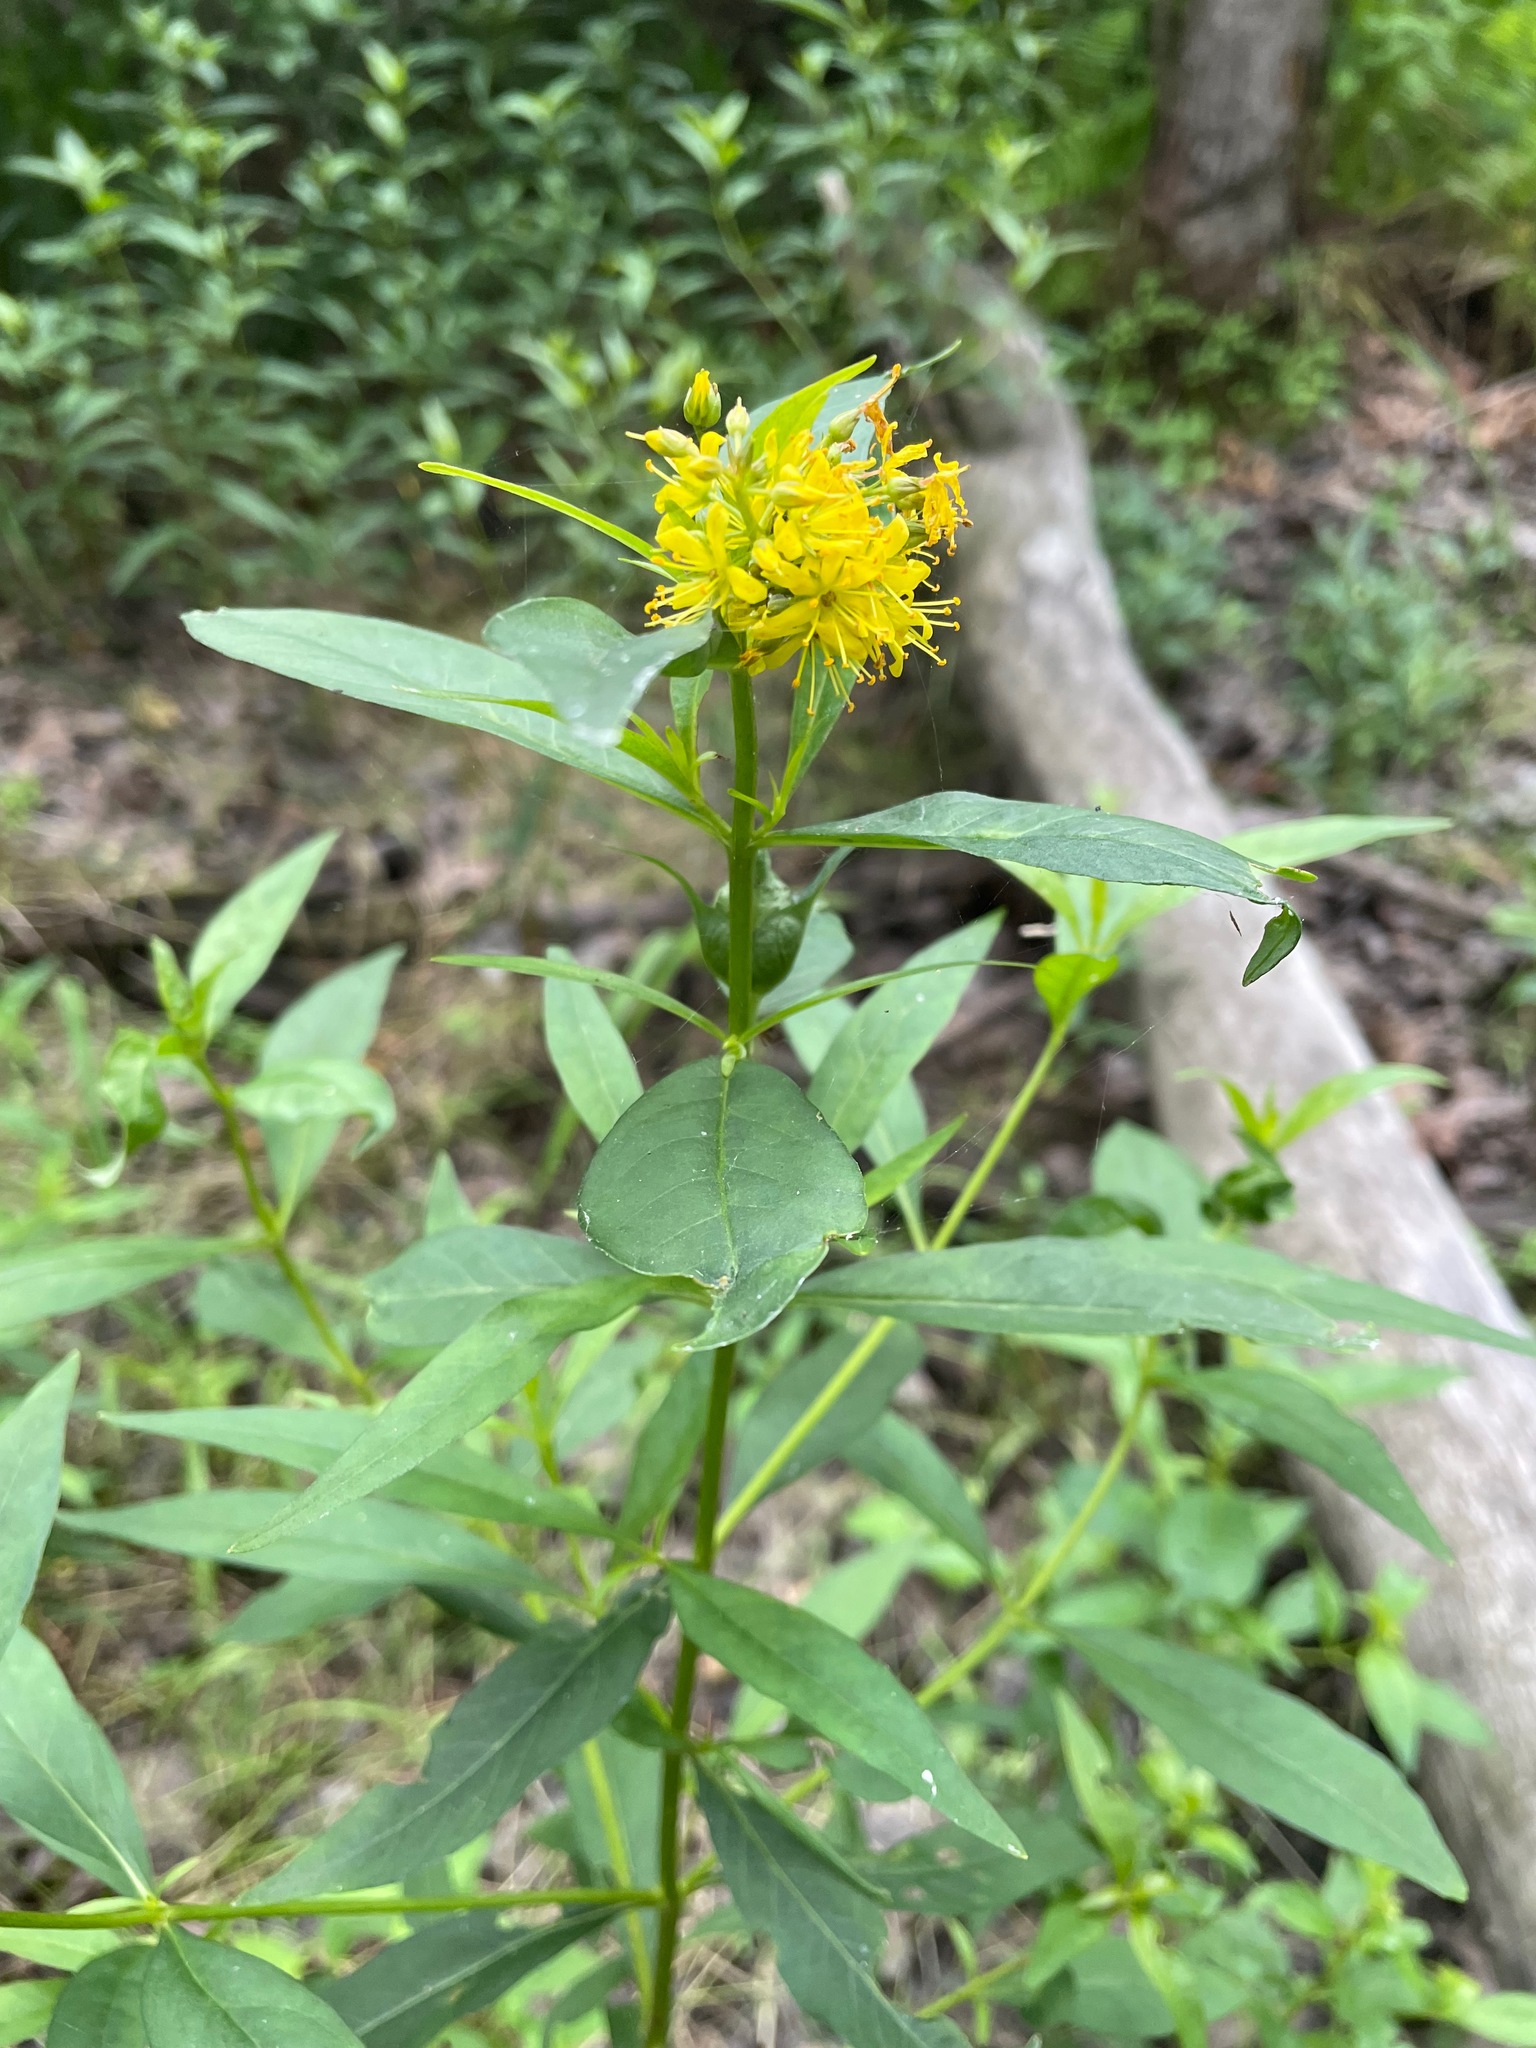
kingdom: Plantae
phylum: Tracheophyta
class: Magnoliopsida
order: Ericales
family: Primulaceae
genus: Lysimachia
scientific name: Lysimachia commixta
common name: Loosestrife
